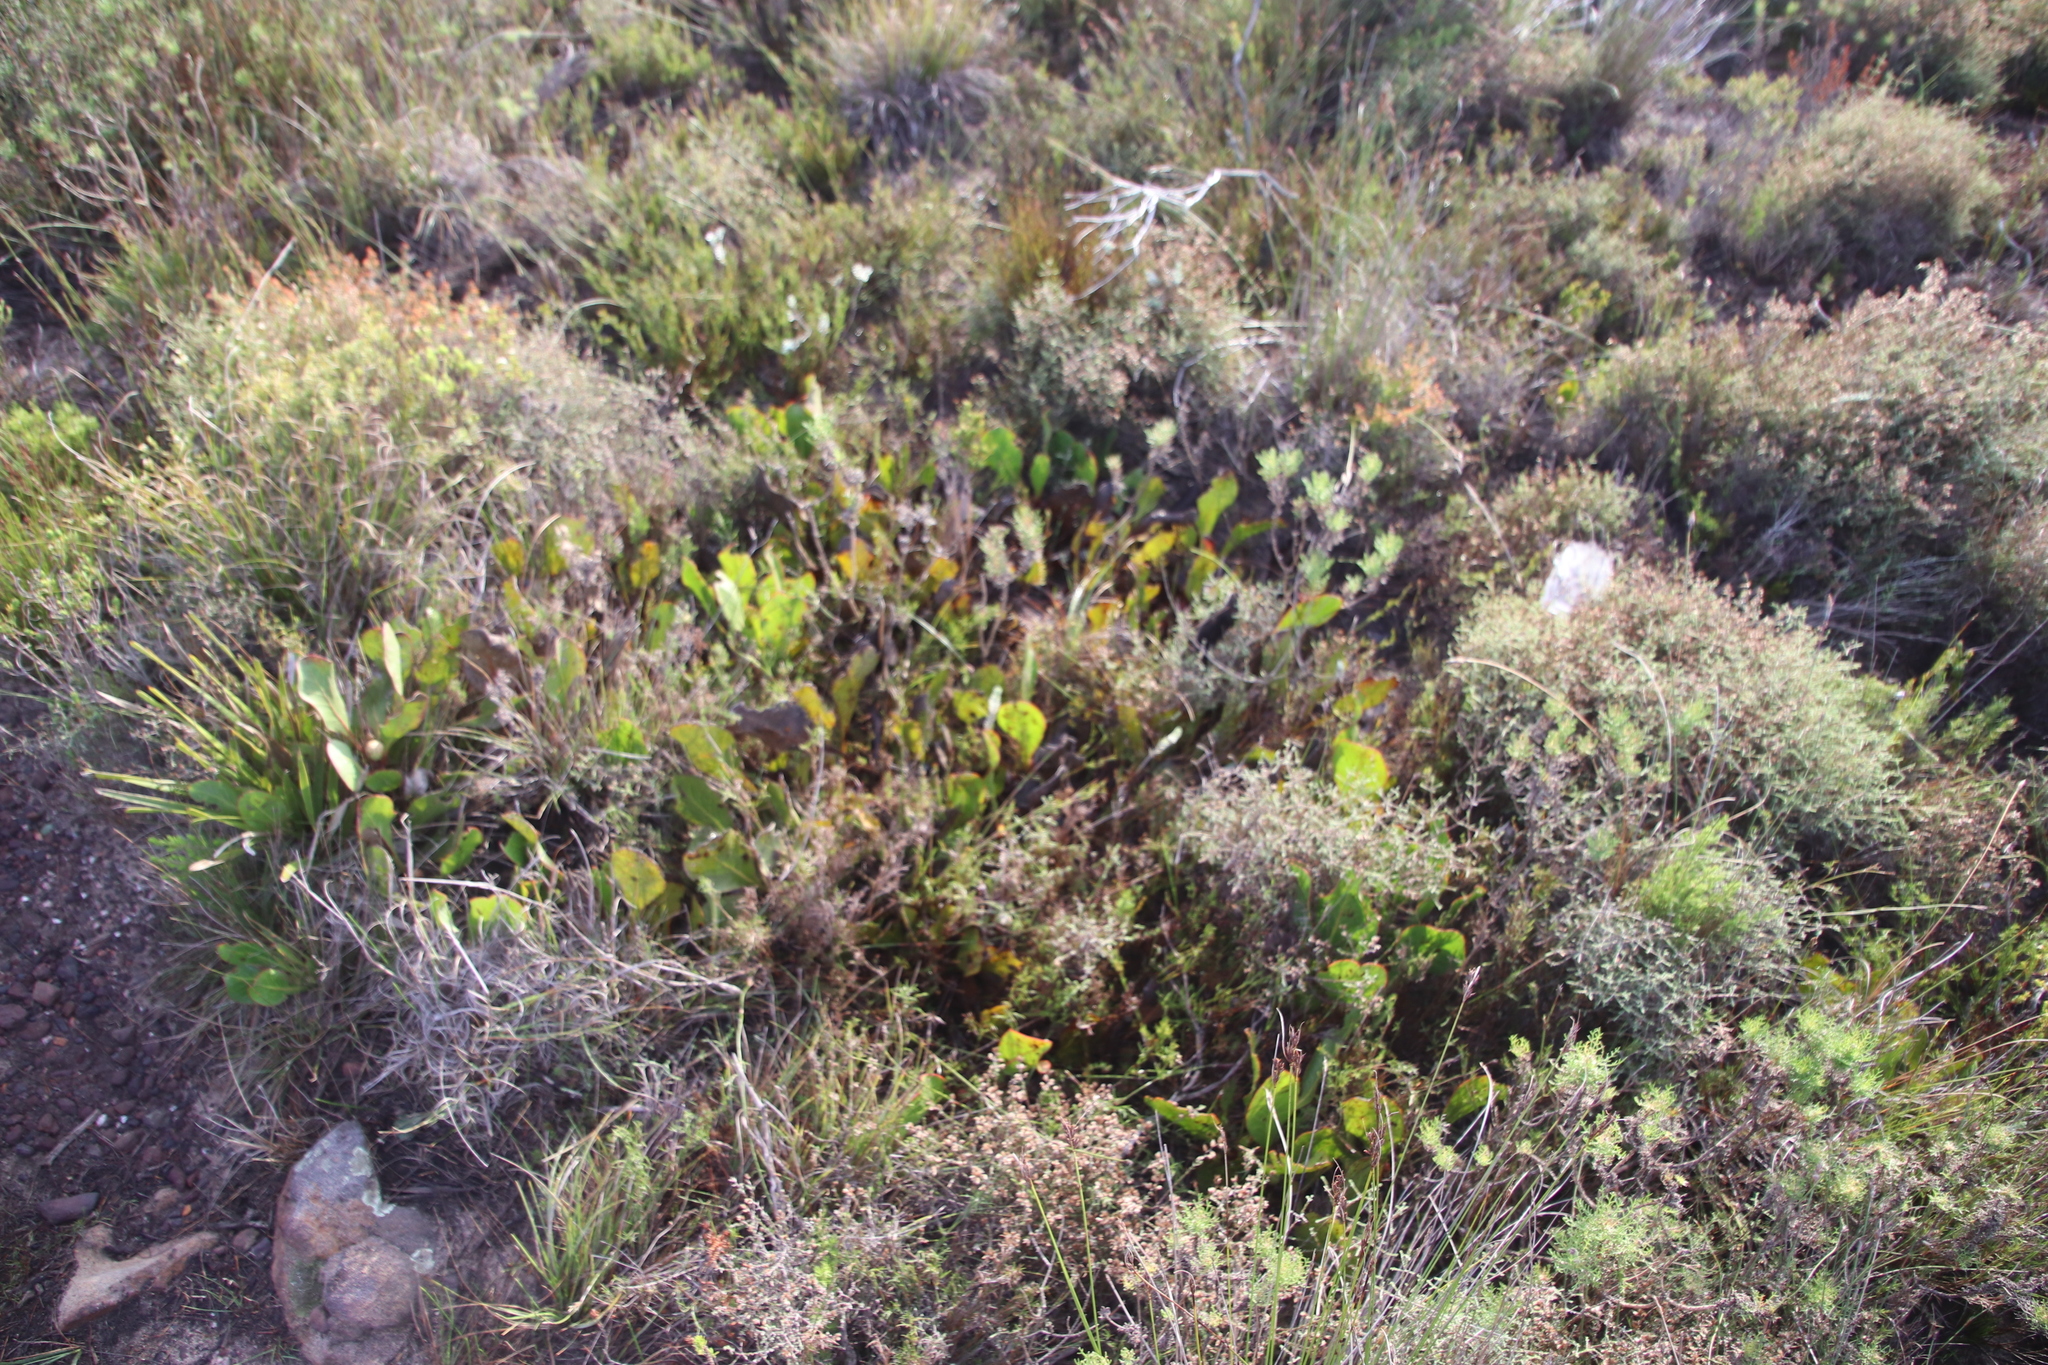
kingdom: Plantae
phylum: Tracheophyta
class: Magnoliopsida
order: Proteales
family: Proteaceae
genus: Protea
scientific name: Protea acaulos
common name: Common ground sugarbush
